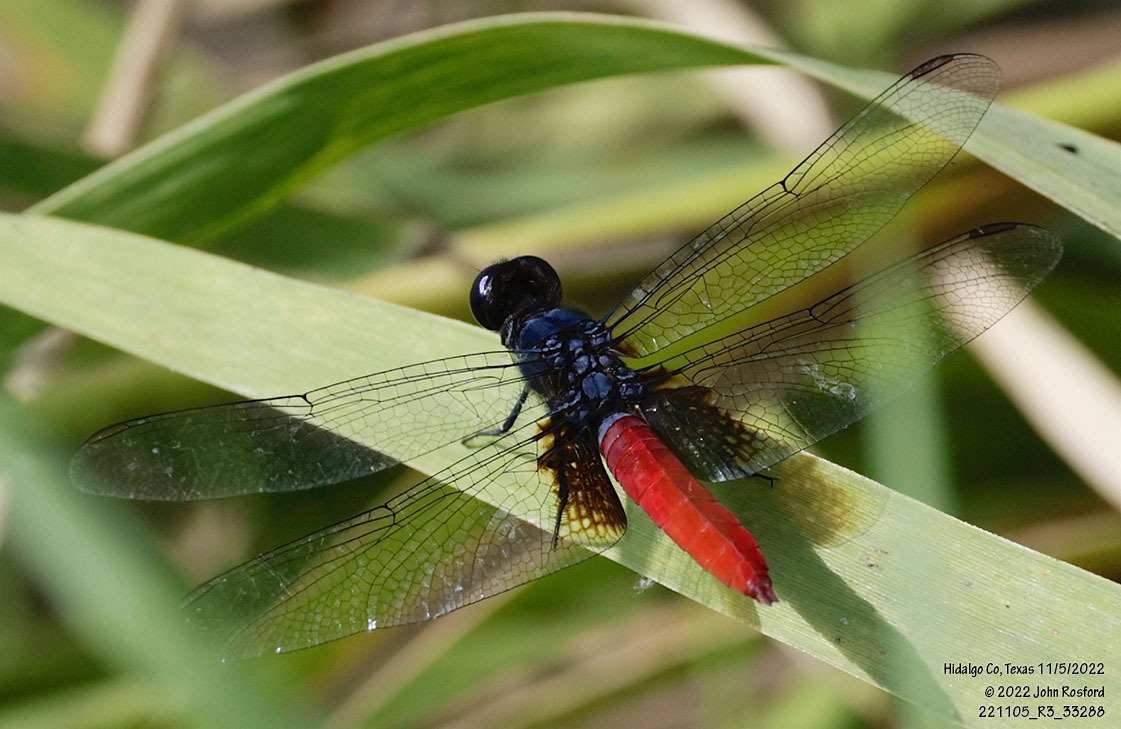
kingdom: Animalia
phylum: Arthropoda
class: Insecta
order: Odonata
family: Libellulidae
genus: Planiplax
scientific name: Planiplax sanguiniventris
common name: Mexican scarlet-tail
